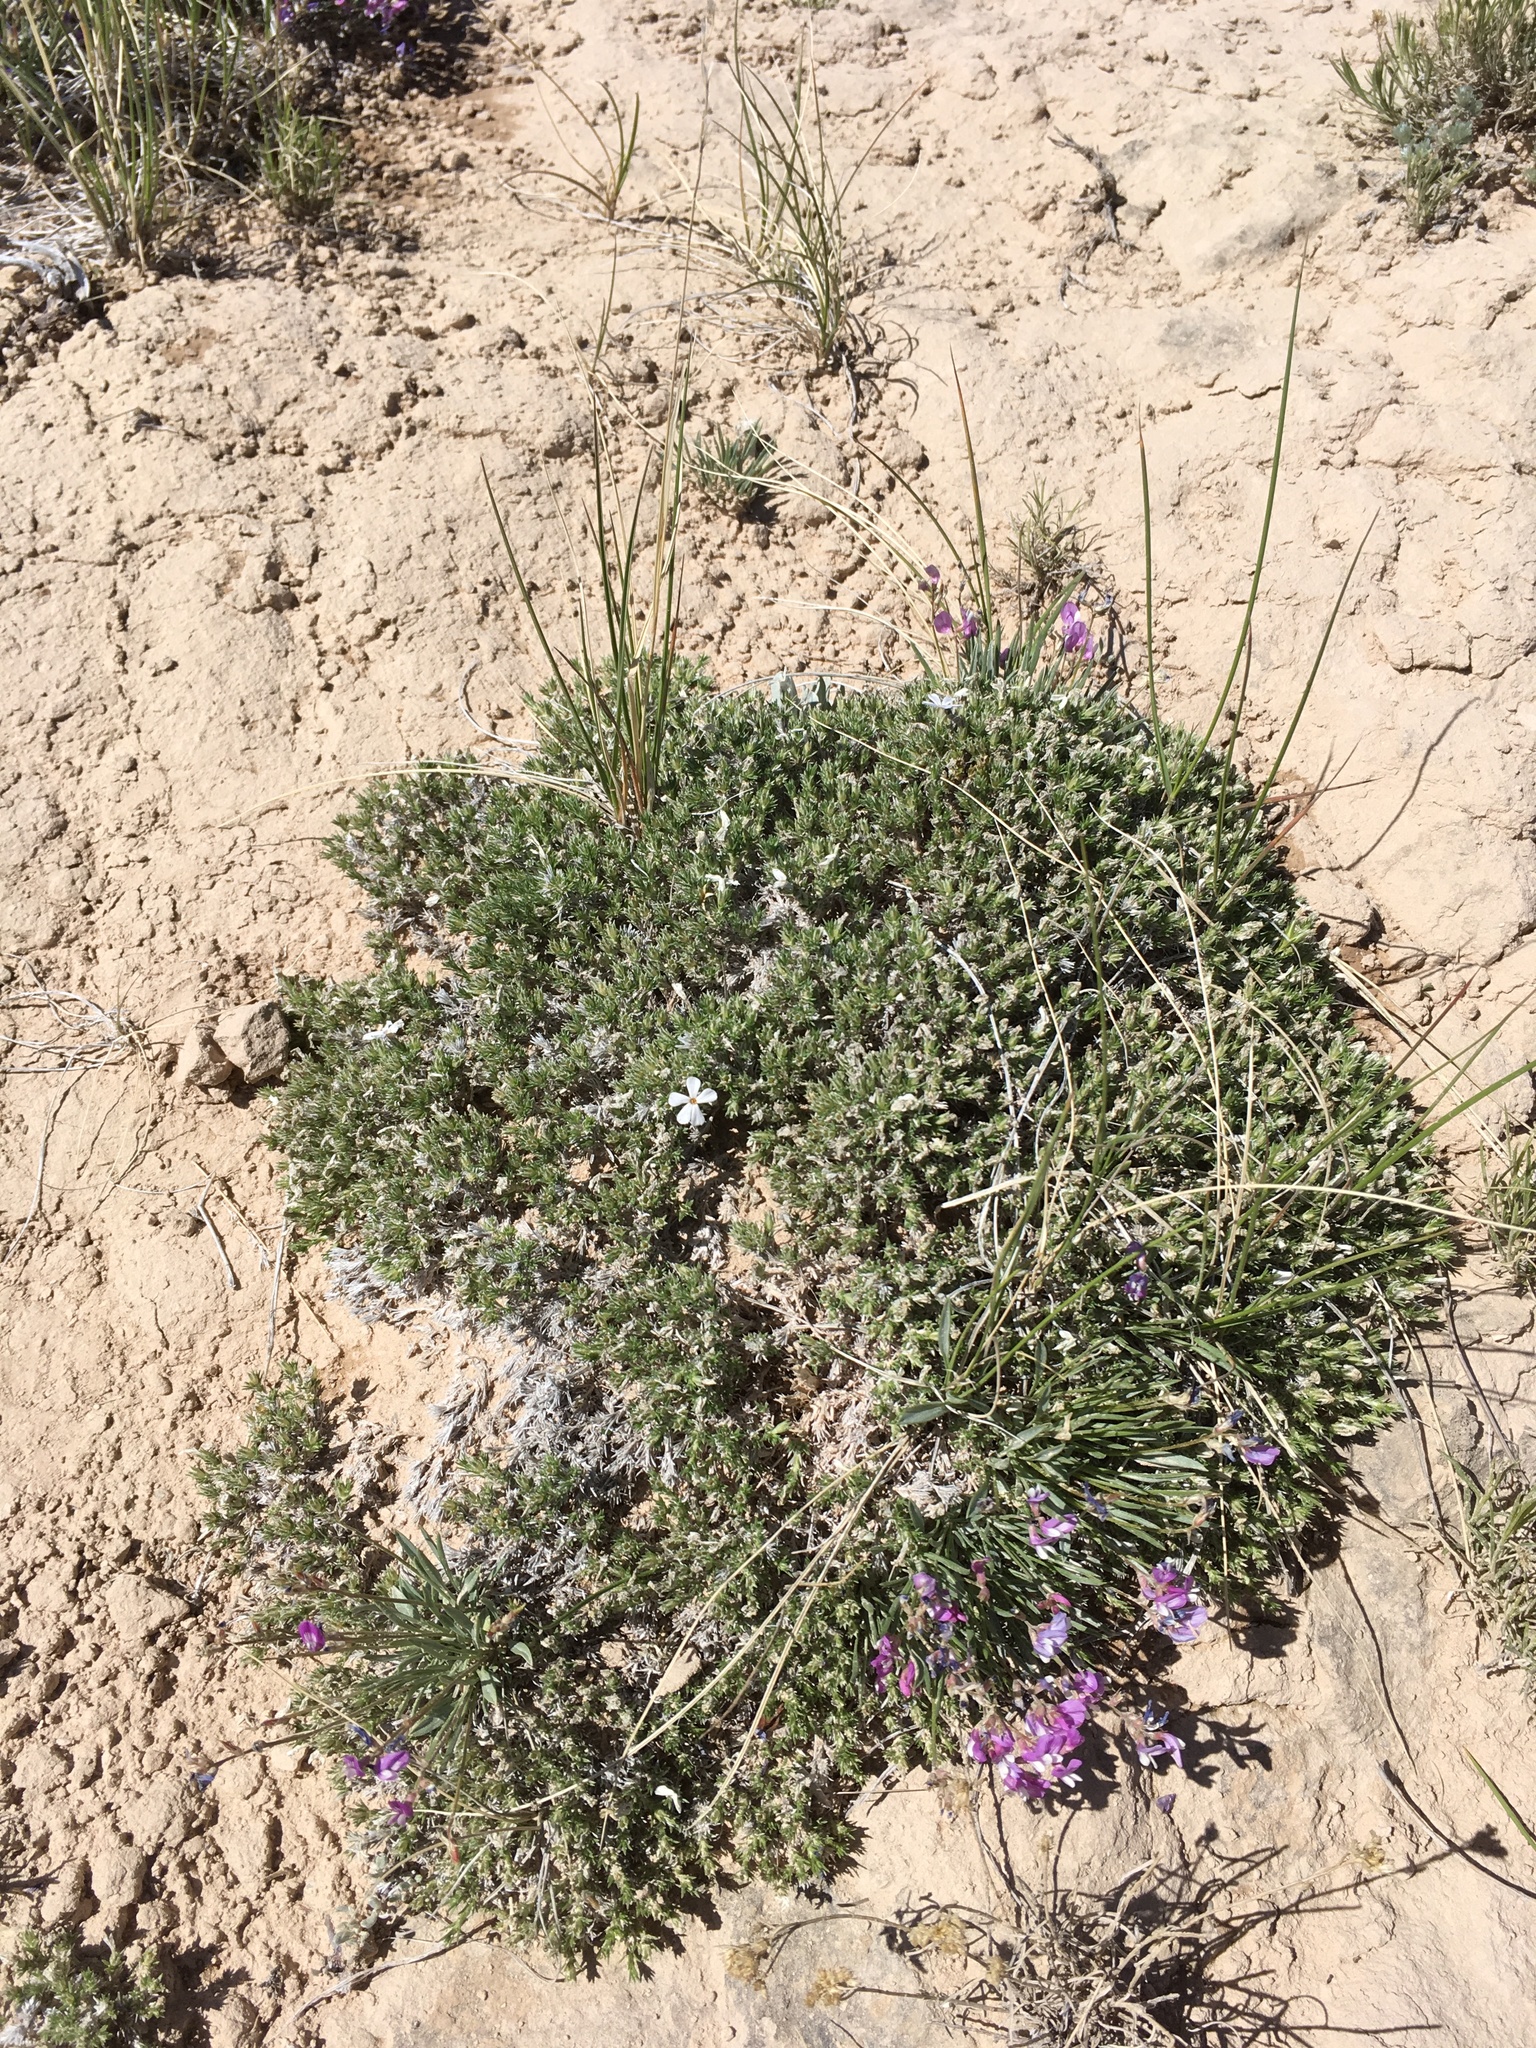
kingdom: Plantae
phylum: Tracheophyta
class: Magnoliopsida
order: Ericales
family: Polemoniaceae
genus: Phlox
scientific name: Phlox hoodii
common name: Moss phlox
